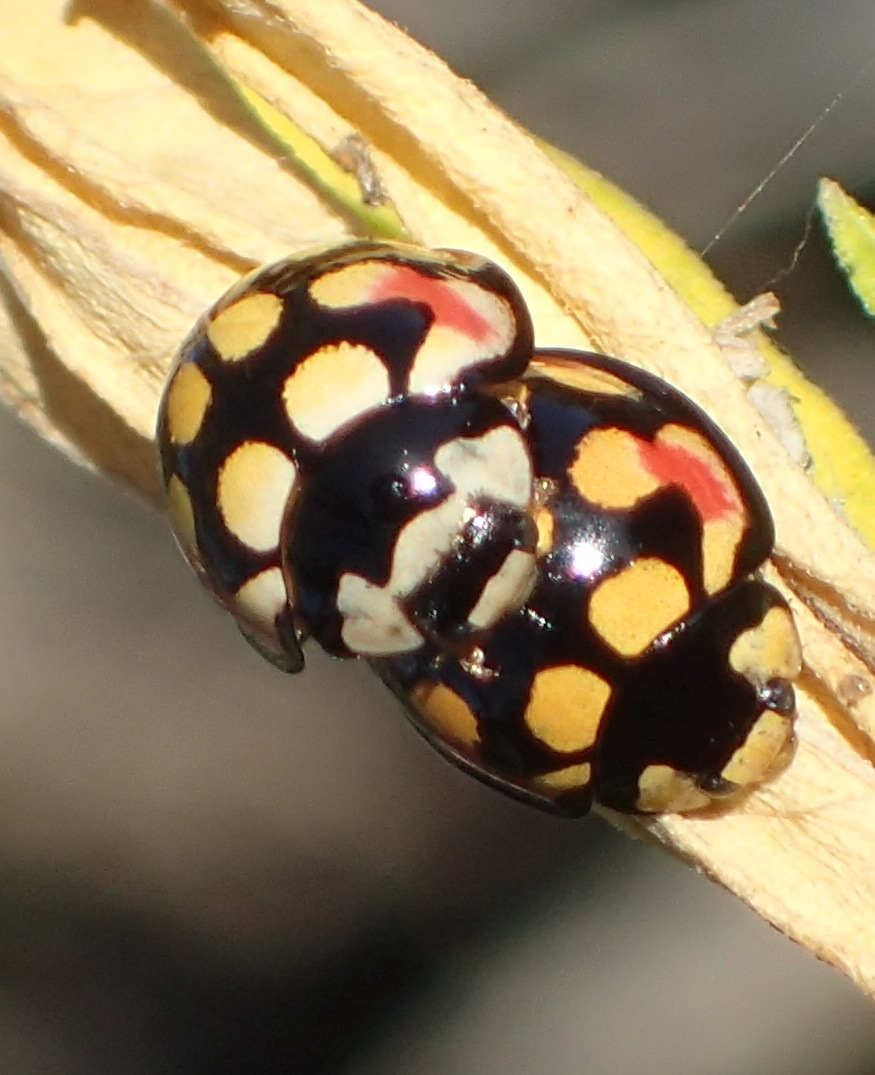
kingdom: Animalia
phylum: Arthropoda
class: Insecta
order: Coleoptera
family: Coccinellidae
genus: Cheilomenes
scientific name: Cheilomenes sulphurea
